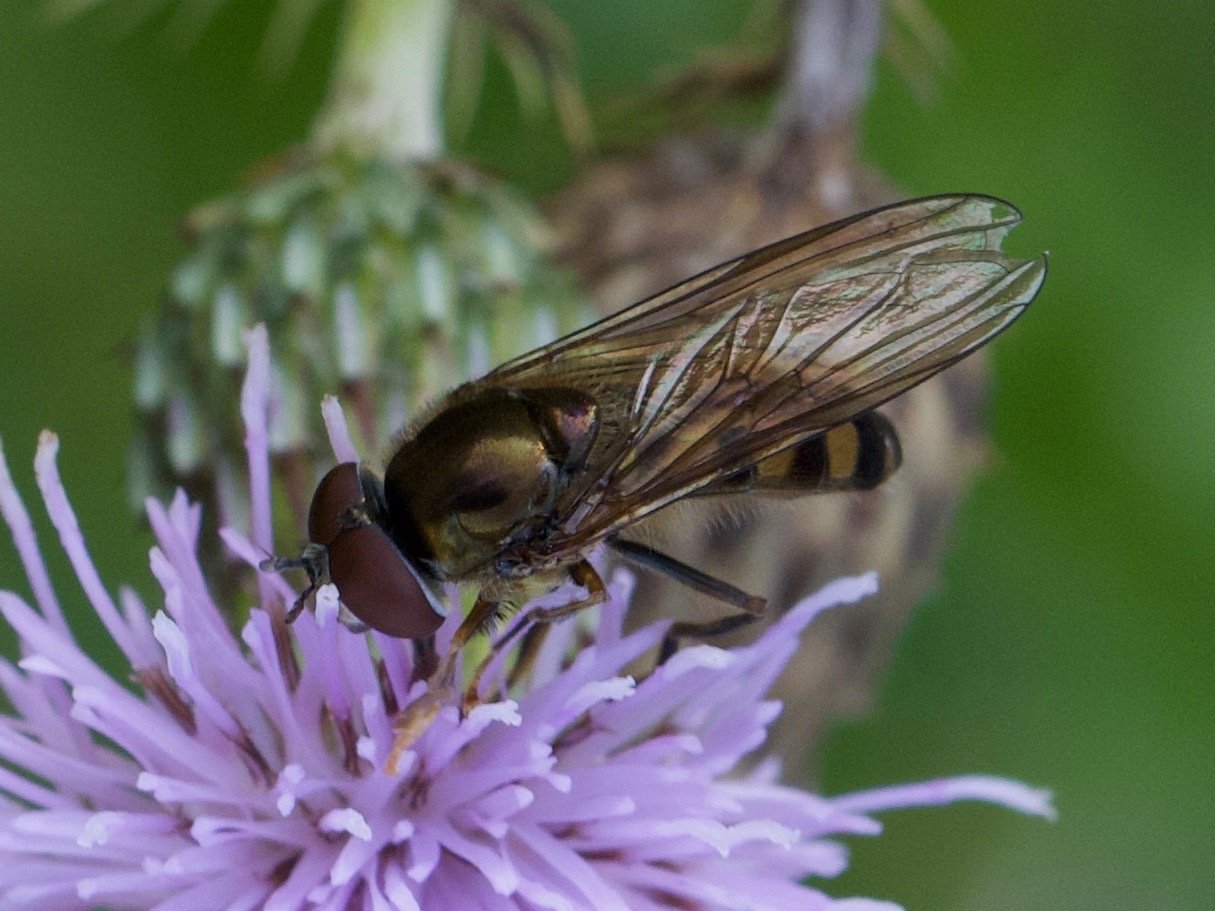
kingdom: Animalia
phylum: Arthropoda
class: Insecta
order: Diptera
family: Syrphidae
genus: Platycheirus
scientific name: Platycheirus peltatus
